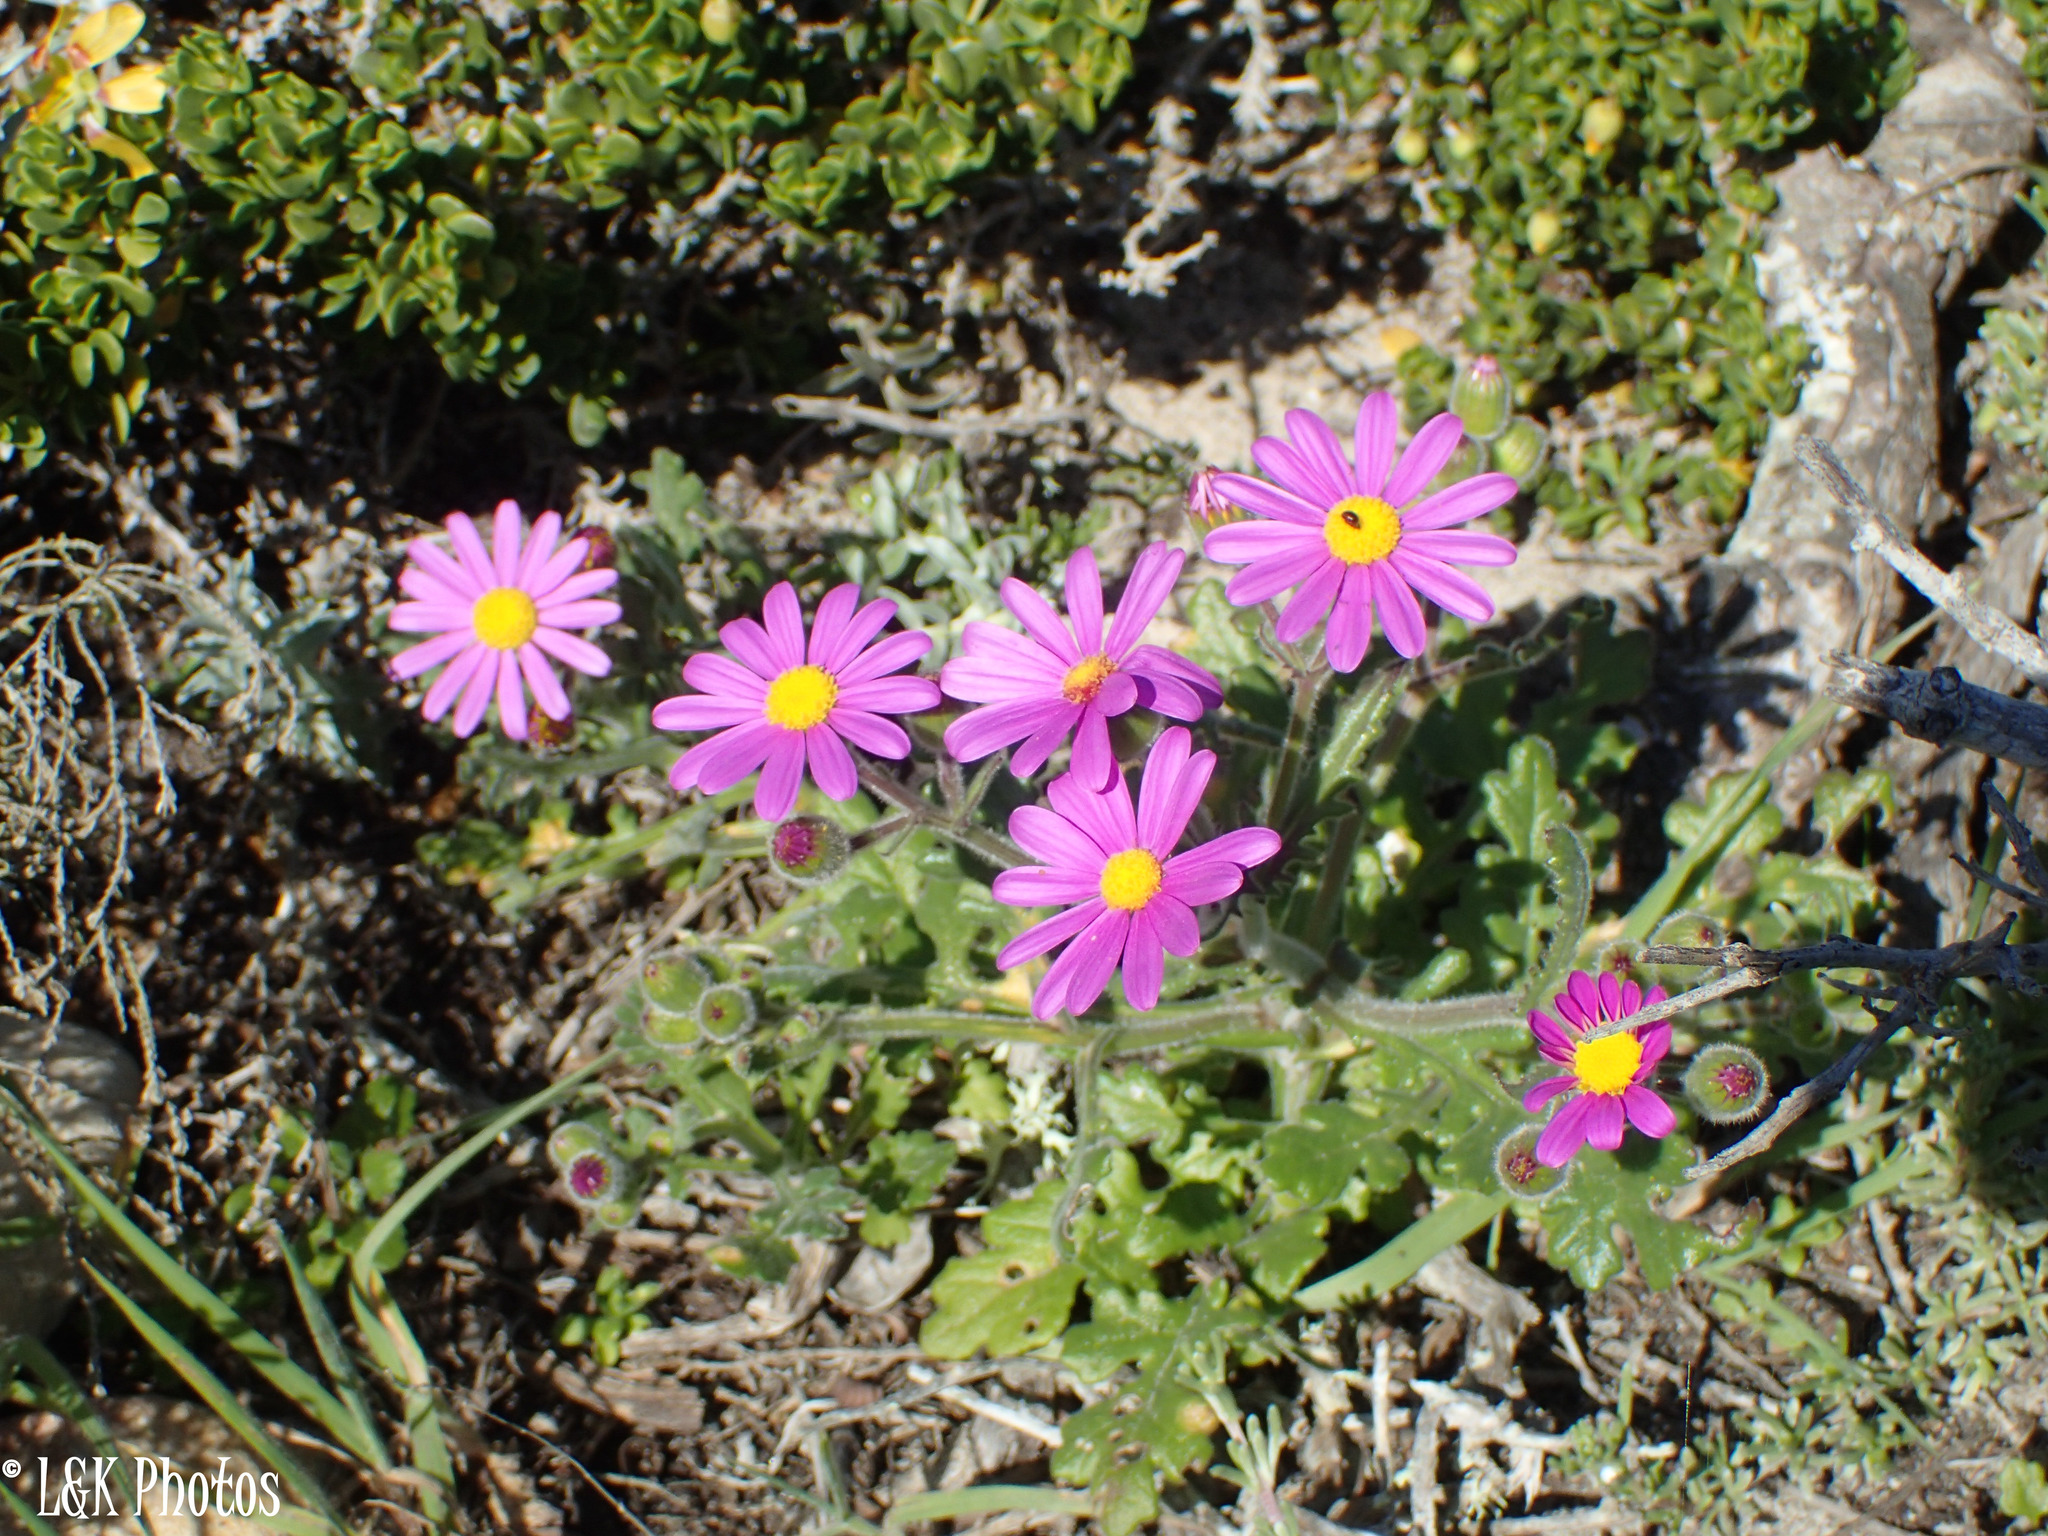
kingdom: Plantae
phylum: Tracheophyta
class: Magnoliopsida
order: Asterales
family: Asteraceae
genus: Senecio
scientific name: Senecio arenarius
